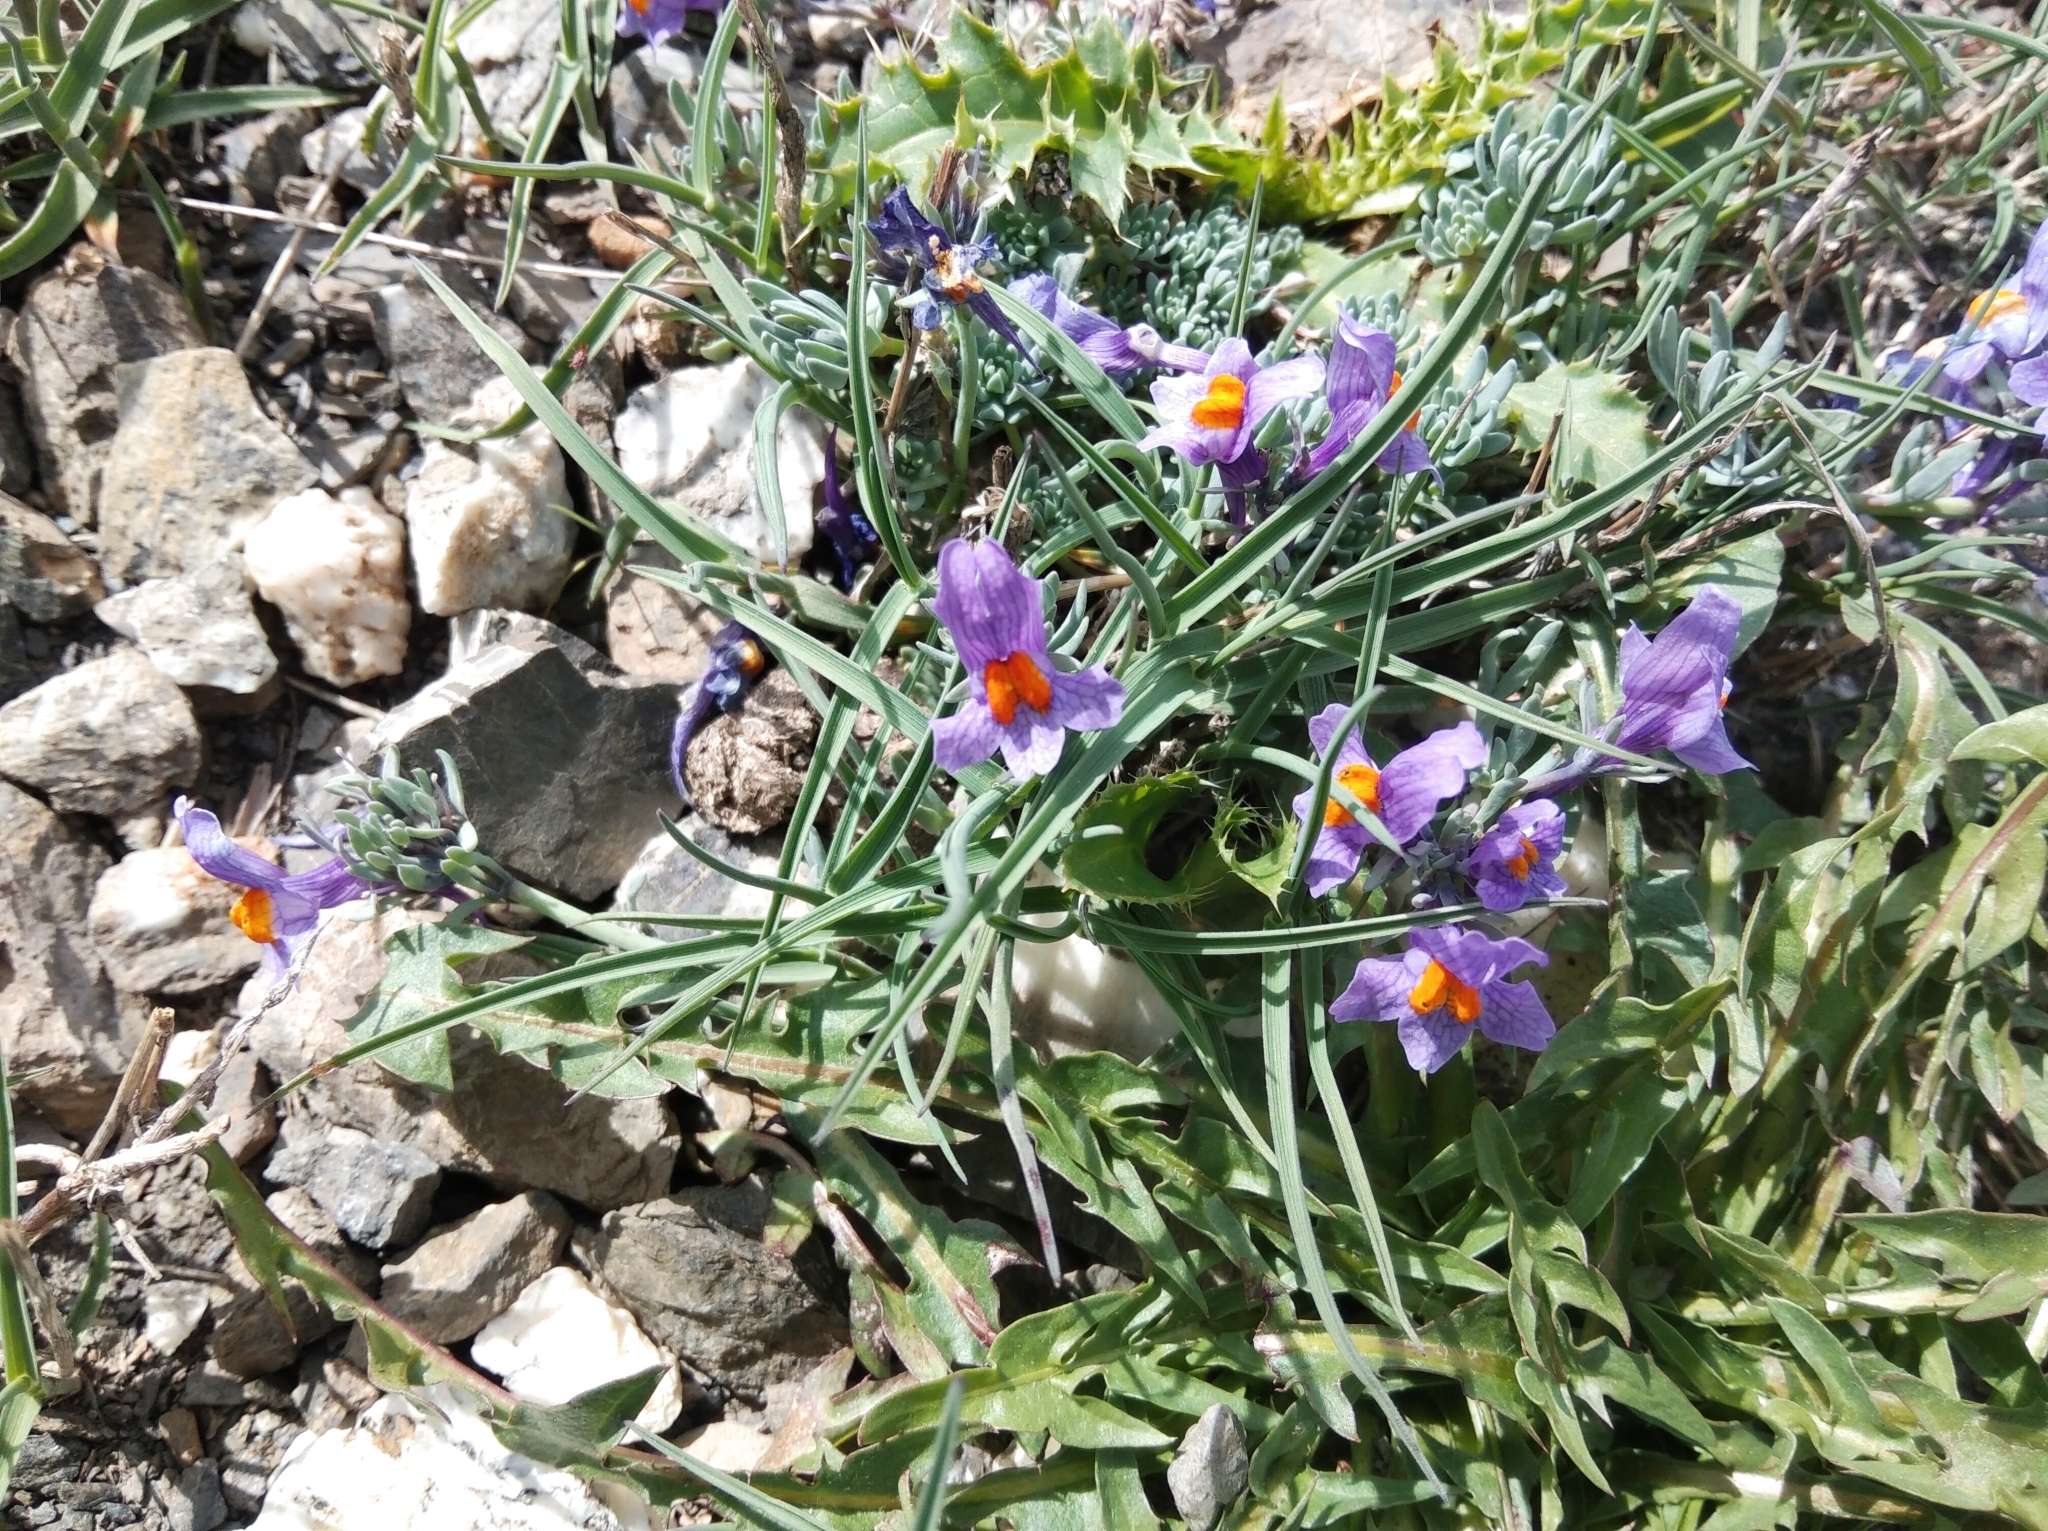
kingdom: Plantae
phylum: Tracheophyta
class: Magnoliopsida
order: Lamiales
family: Plantaginaceae
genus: Linaria
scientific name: Linaria alpina
